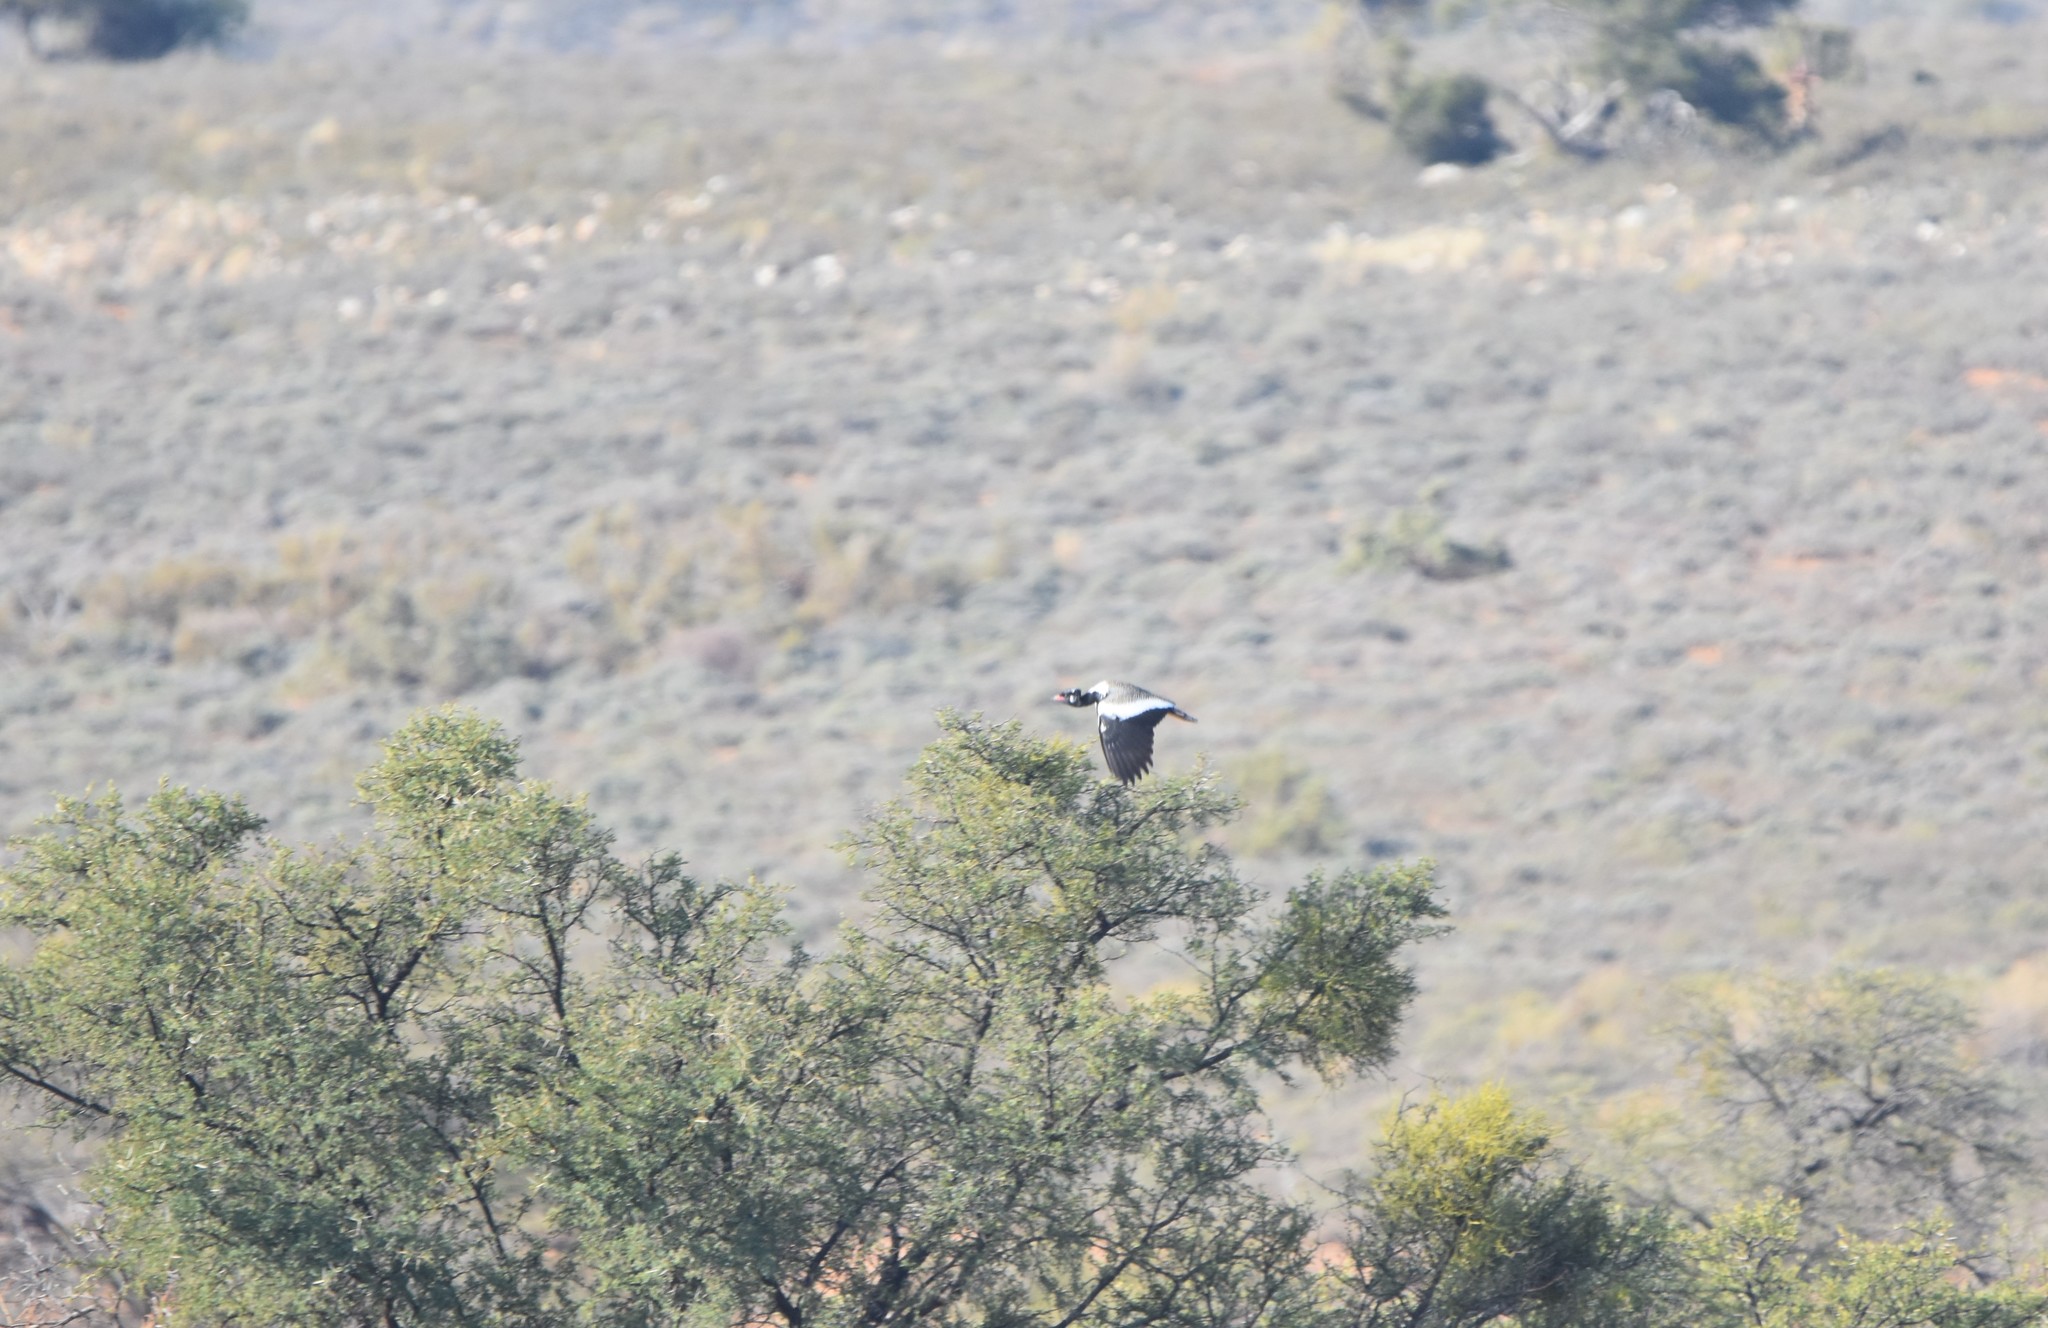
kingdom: Animalia
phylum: Chordata
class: Aves
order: Otidiformes
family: Otididae
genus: Afrotis
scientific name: Afrotis afra
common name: Southern black korhaan
